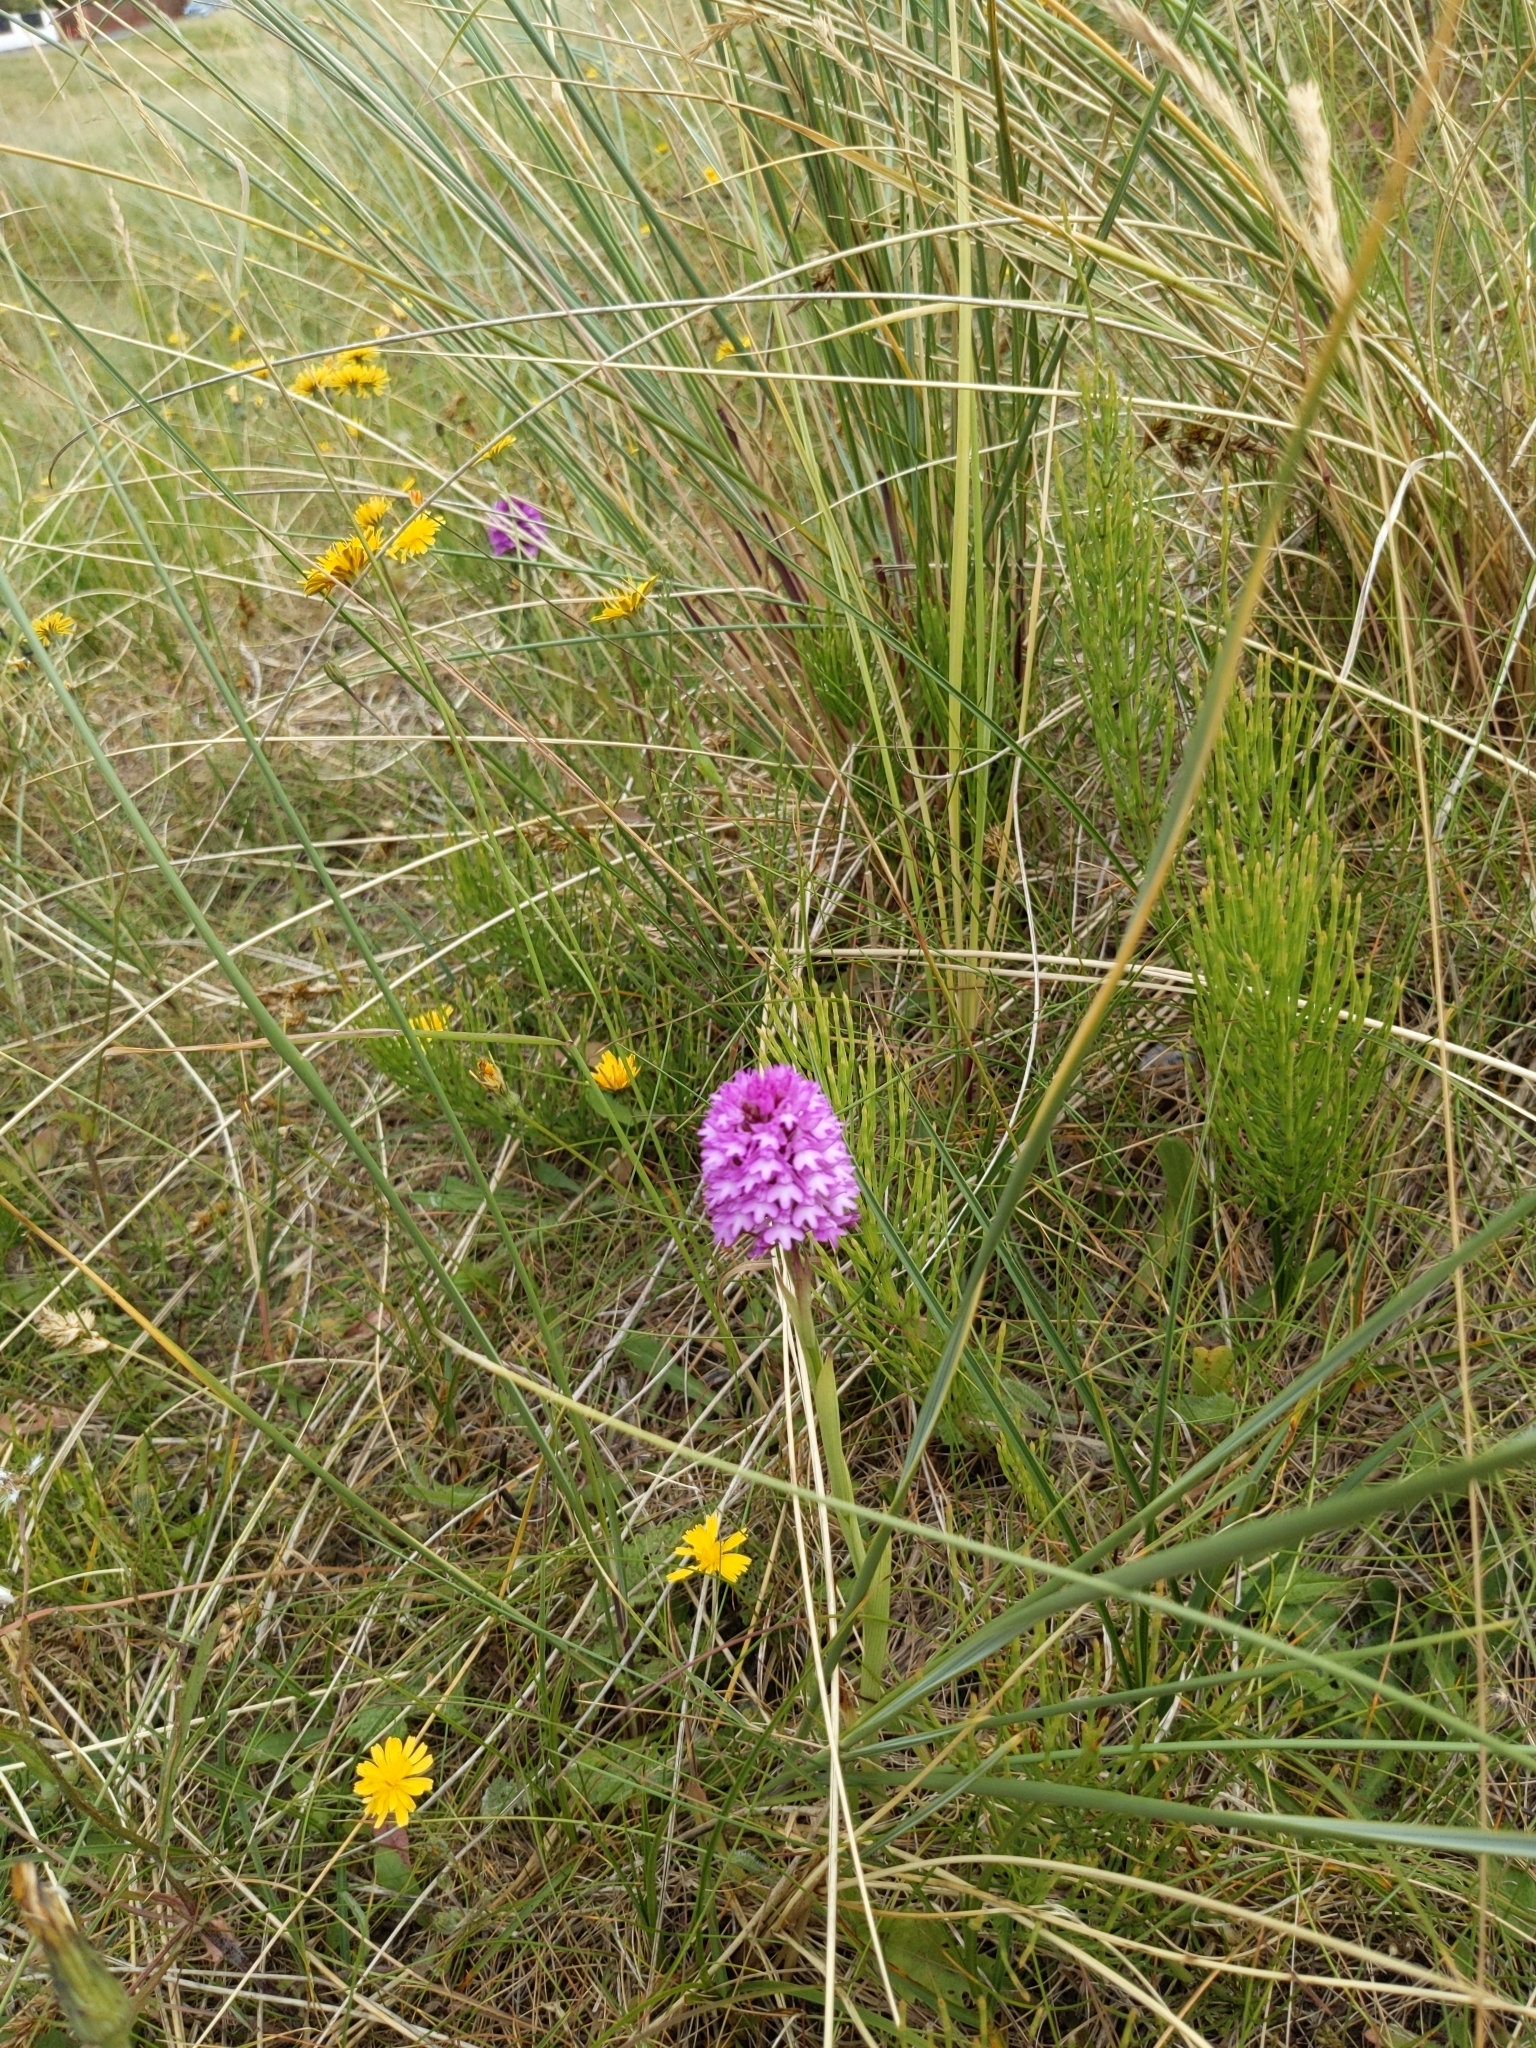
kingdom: Plantae
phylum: Tracheophyta
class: Liliopsida
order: Asparagales
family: Orchidaceae
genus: Anacamptis
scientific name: Anacamptis pyramidalis
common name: Pyramidal orchid
